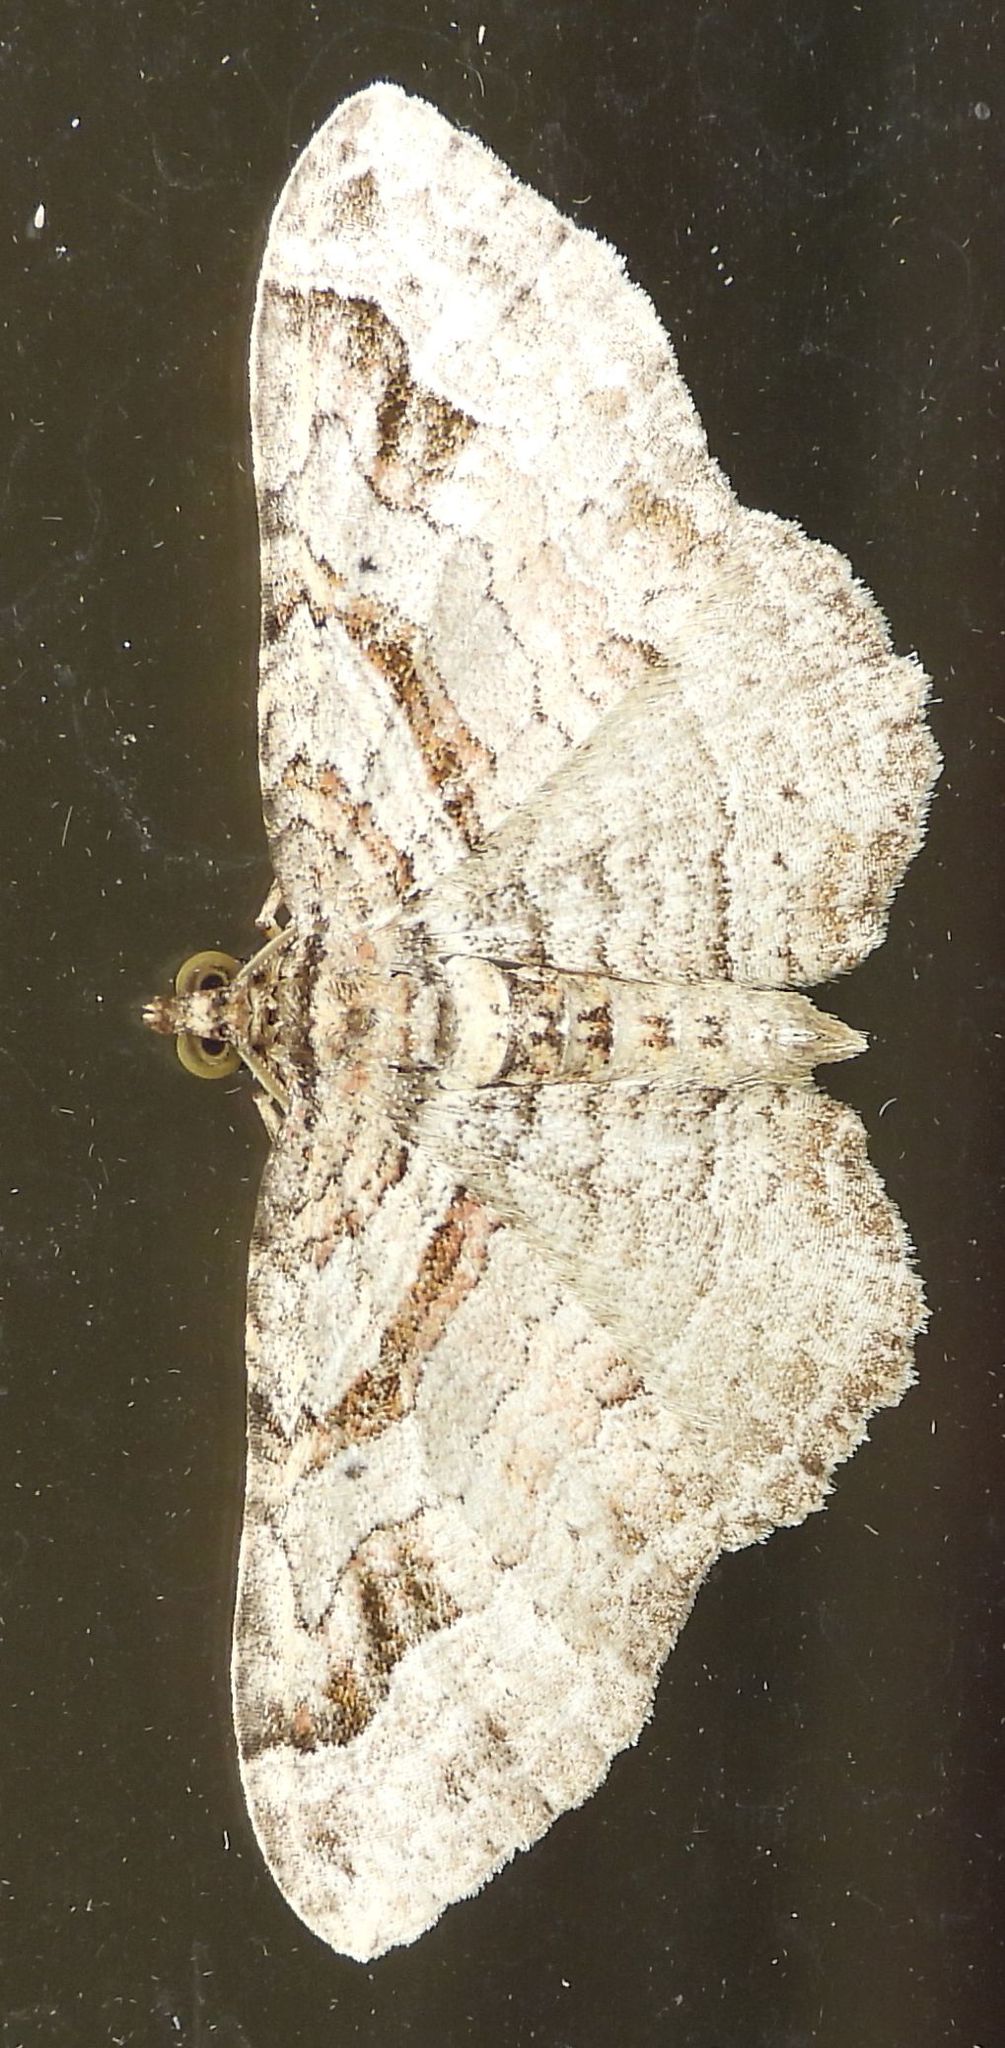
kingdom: Animalia
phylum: Arthropoda
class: Insecta
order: Lepidoptera
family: Geometridae
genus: Costaconvexa
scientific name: Costaconvexa centrostrigaria
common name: Bent-line carpet
